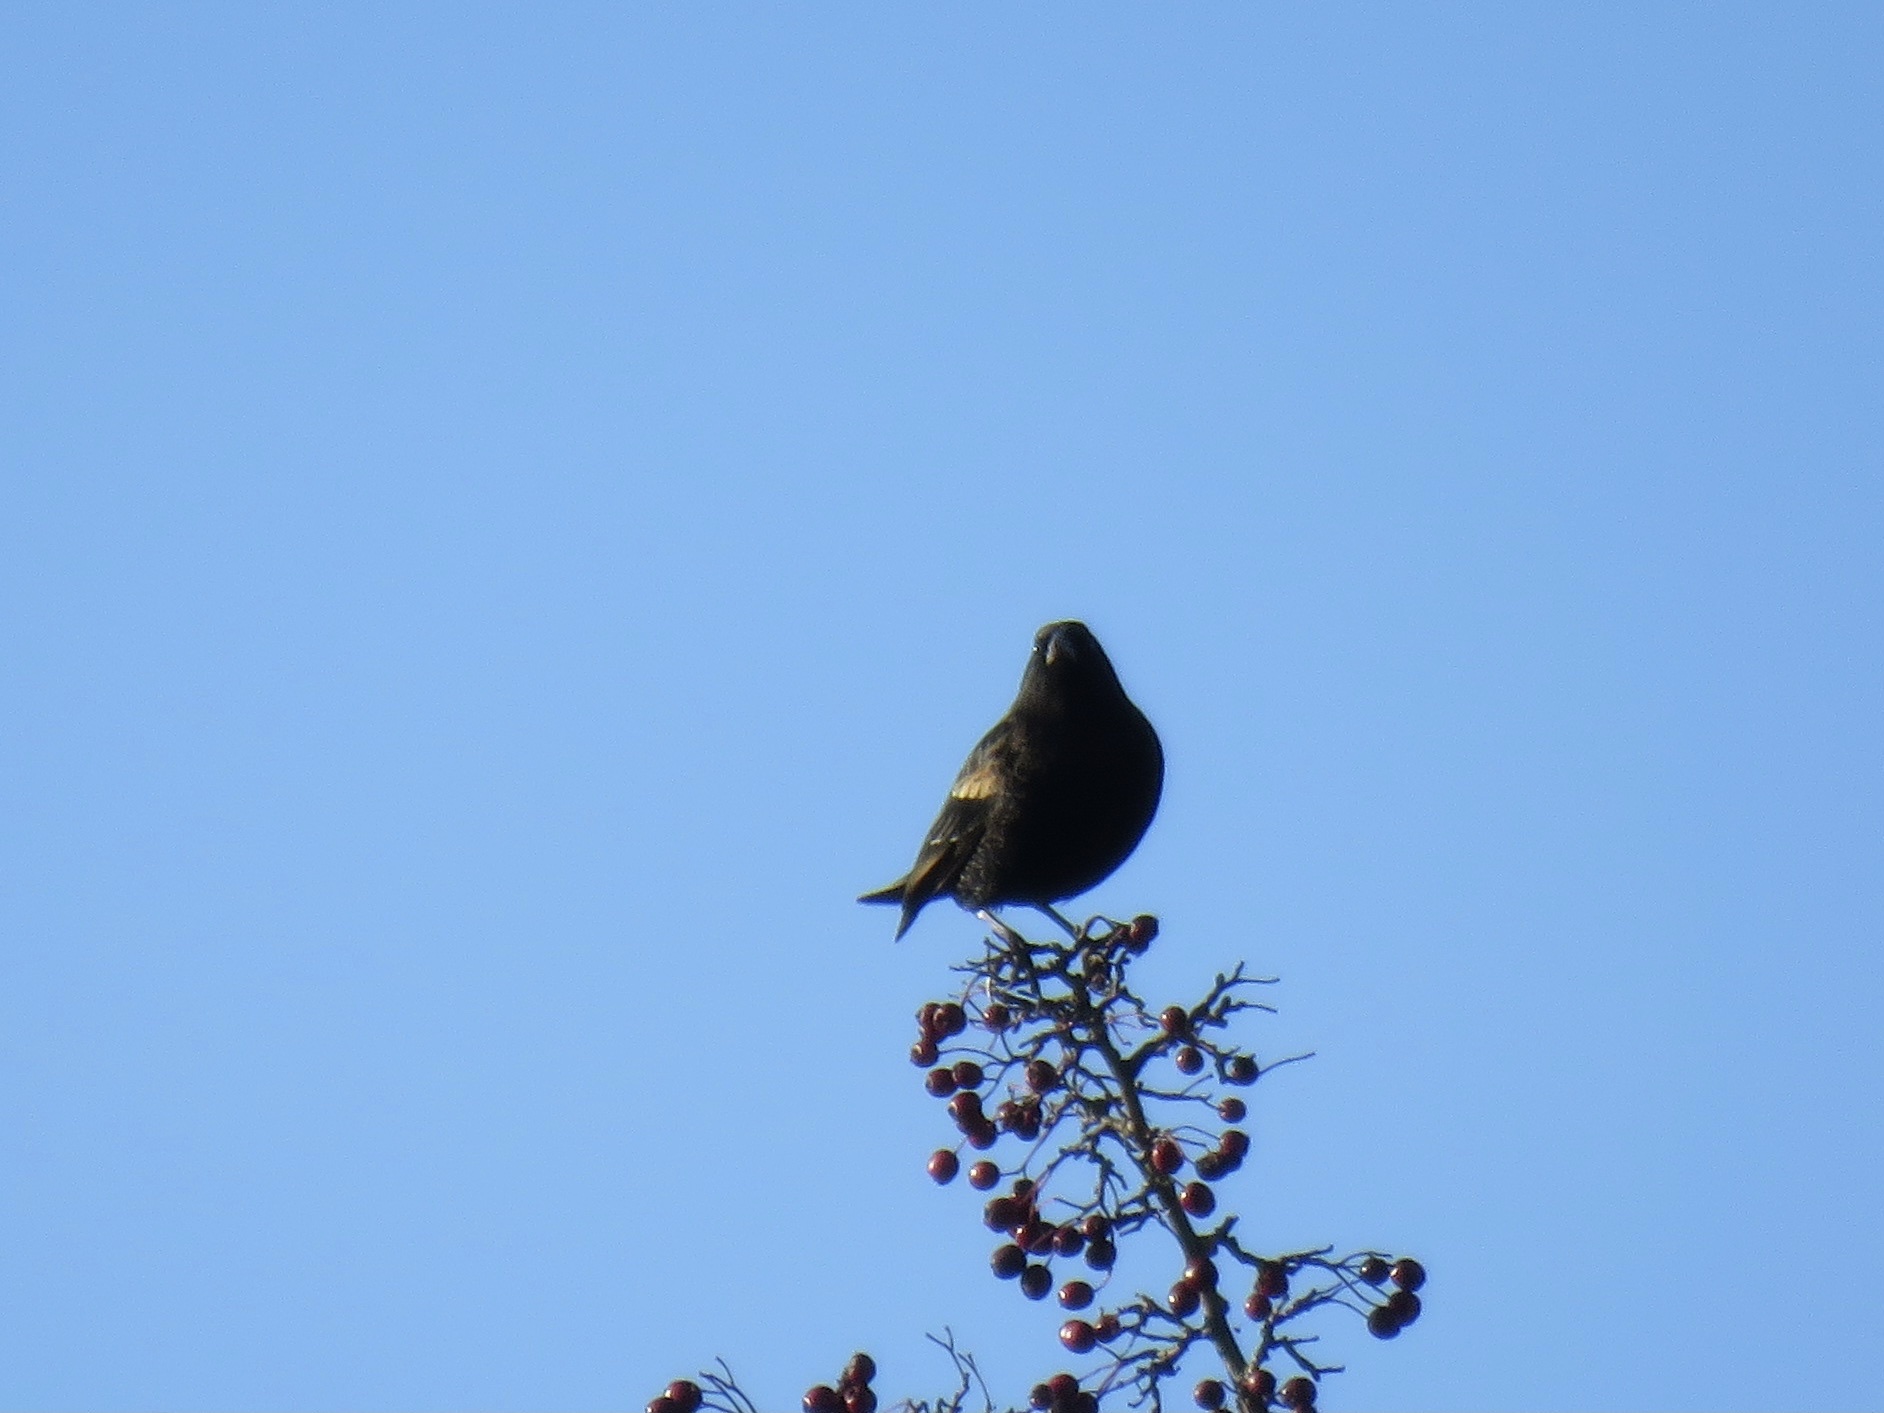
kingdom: Animalia
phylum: Chordata
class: Aves
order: Passeriformes
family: Icteridae
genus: Agelaius
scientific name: Agelaius phoeniceus
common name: Red-winged blackbird
